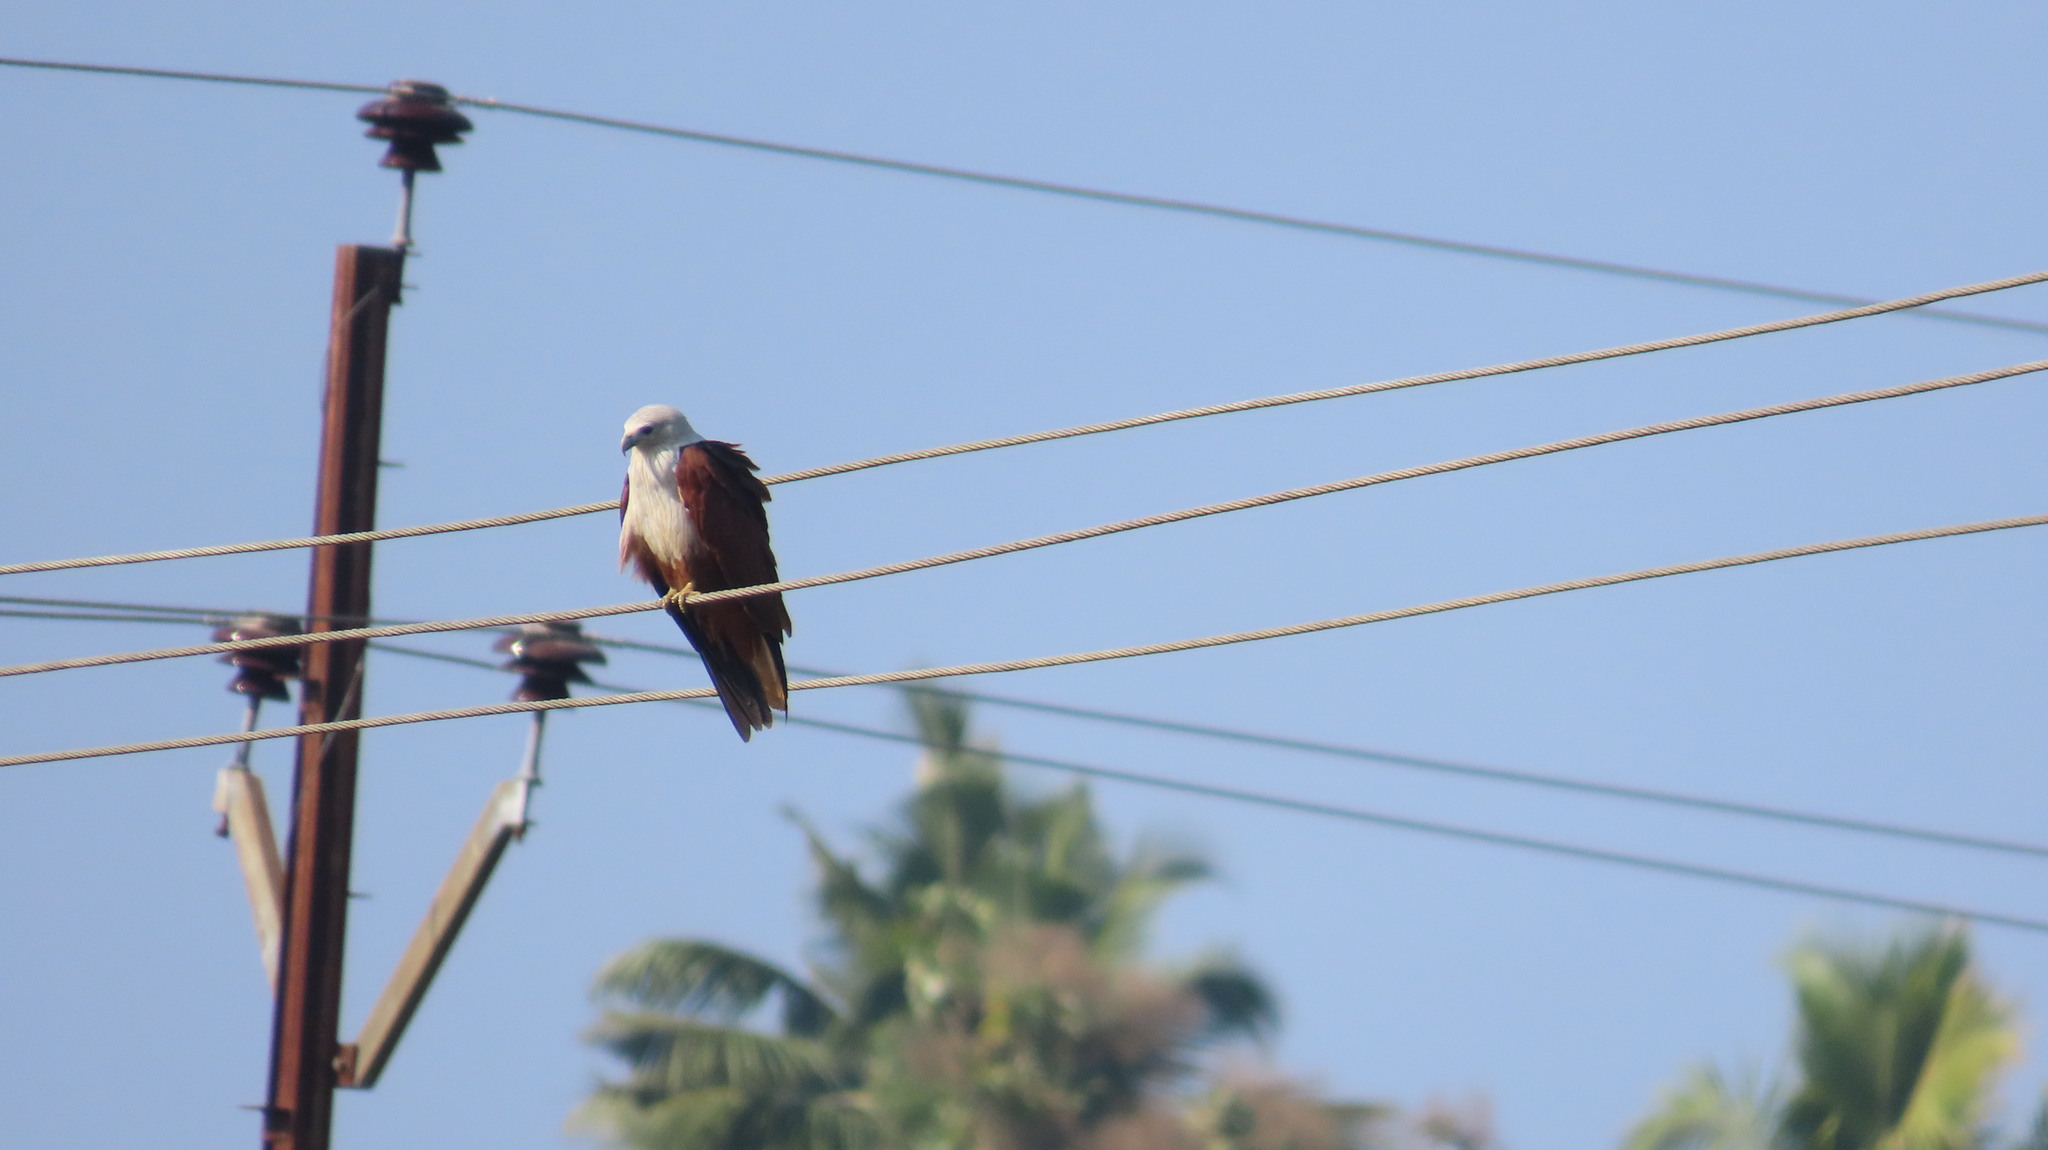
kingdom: Animalia
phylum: Chordata
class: Aves
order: Accipitriformes
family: Accipitridae
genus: Haliastur
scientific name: Haliastur indus
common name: Brahminy kite
